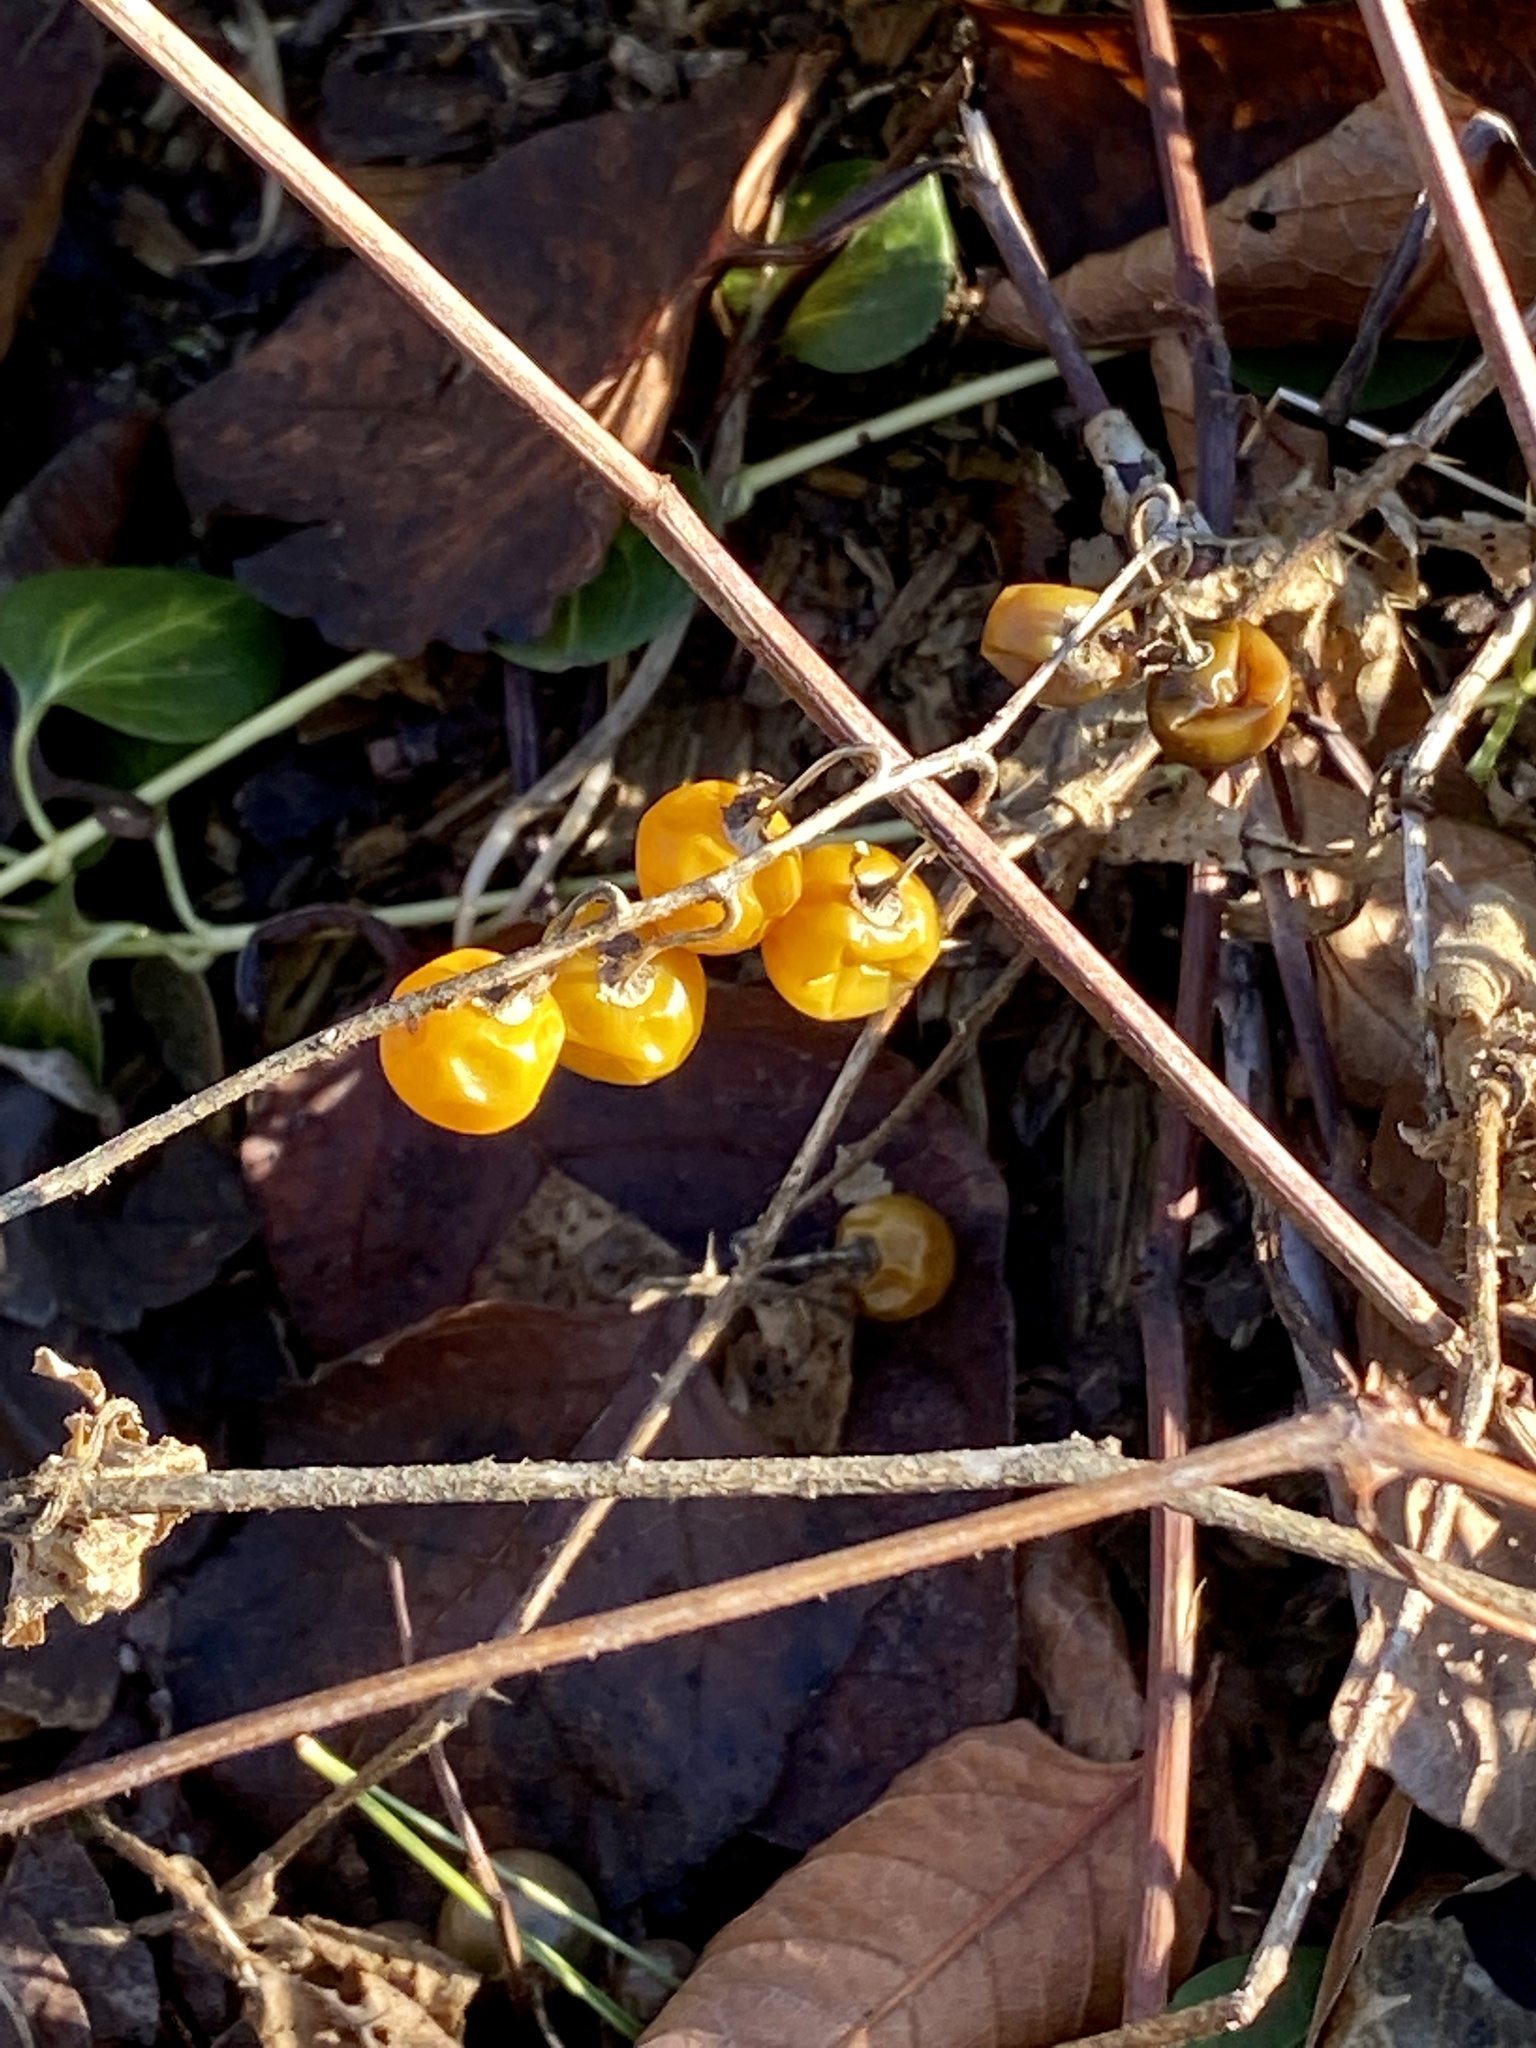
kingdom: Plantae
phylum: Tracheophyta
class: Magnoliopsida
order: Solanales
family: Solanaceae
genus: Solanum
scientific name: Solanum carolinense
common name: Horse-nettle
